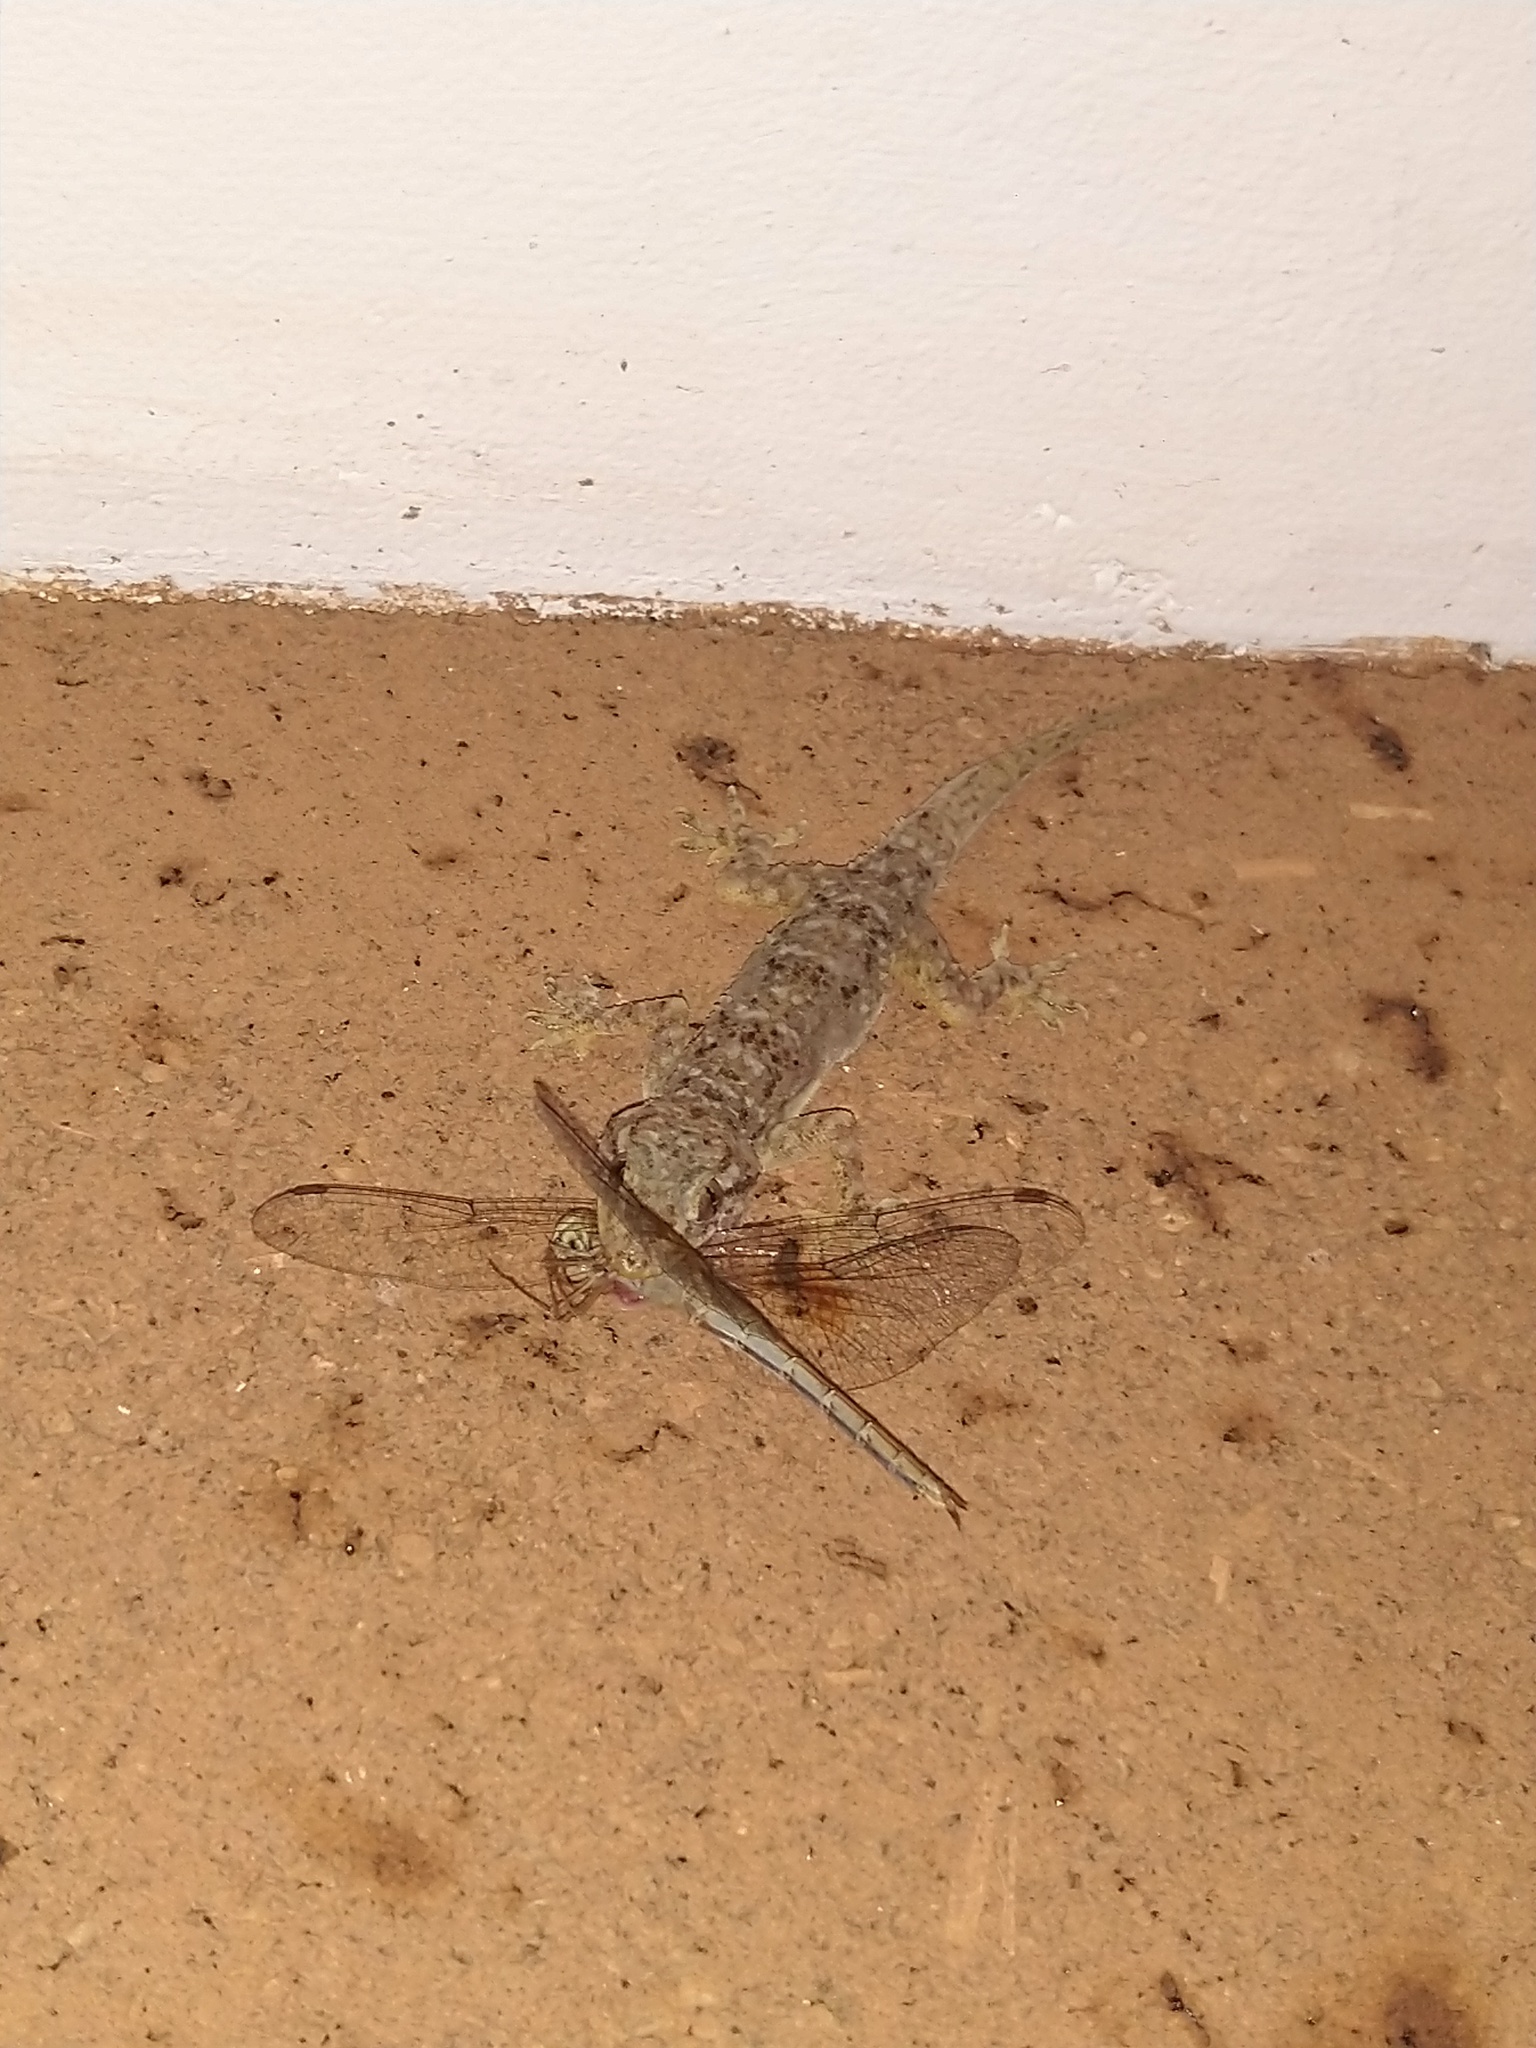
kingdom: Animalia
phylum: Arthropoda
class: Insecta
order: Odonata
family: Libellulidae
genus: Tholymis
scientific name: Tholymis tillarga
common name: Coral-tailed cloud wing
